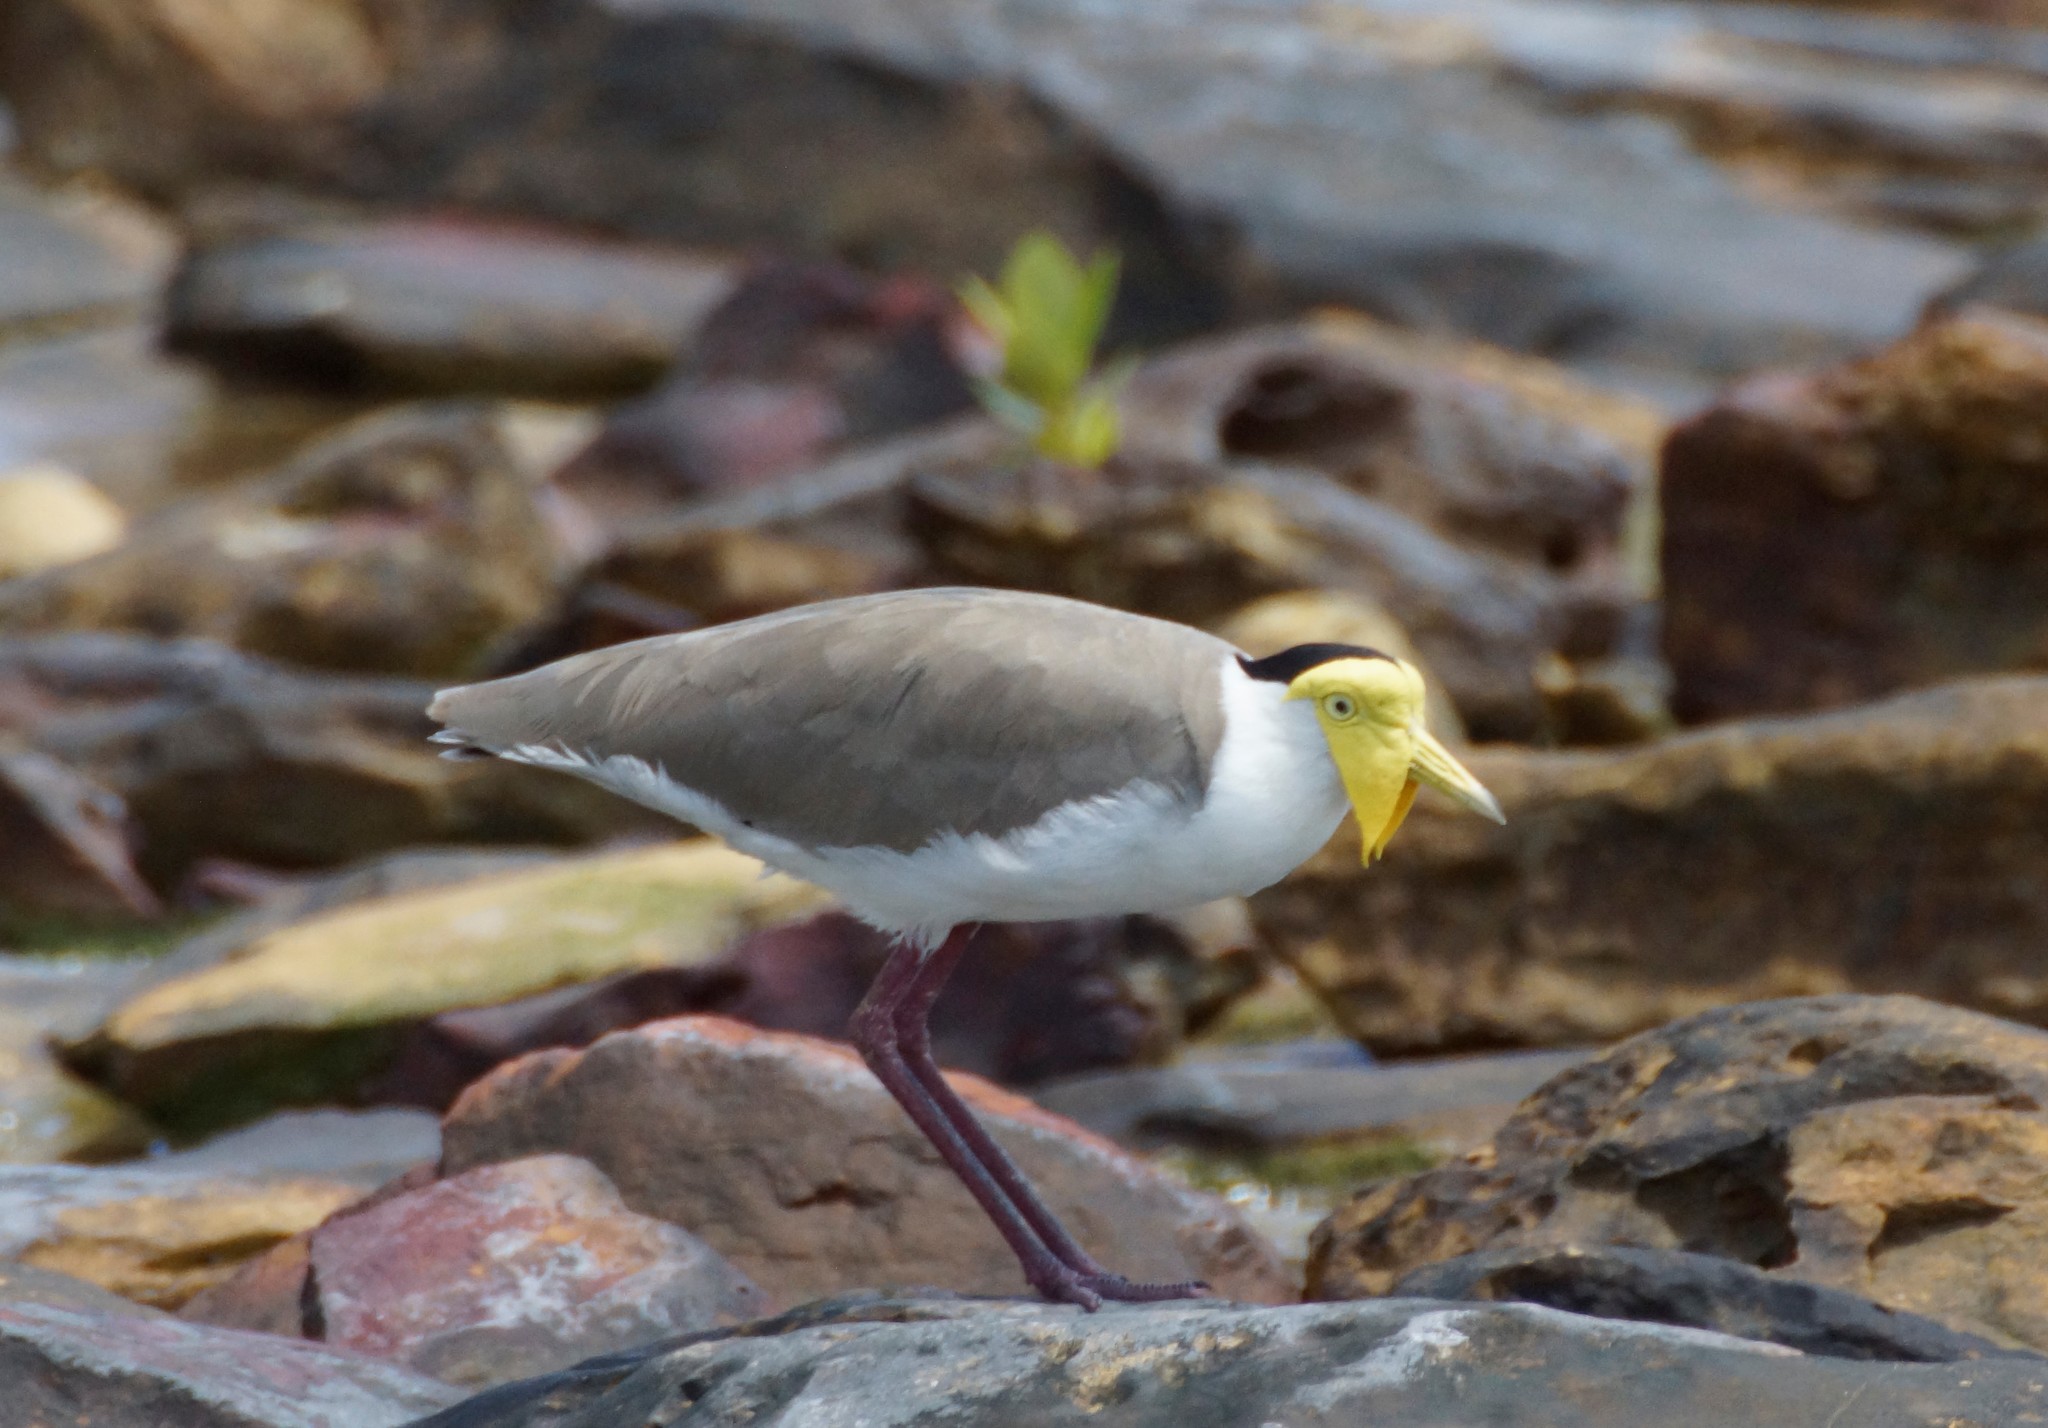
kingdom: Animalia
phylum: Chordata
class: Aves
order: Charadriiformes
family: Charadriidae
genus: Vanellus
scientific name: Vanellus miles
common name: Masked lapwing
